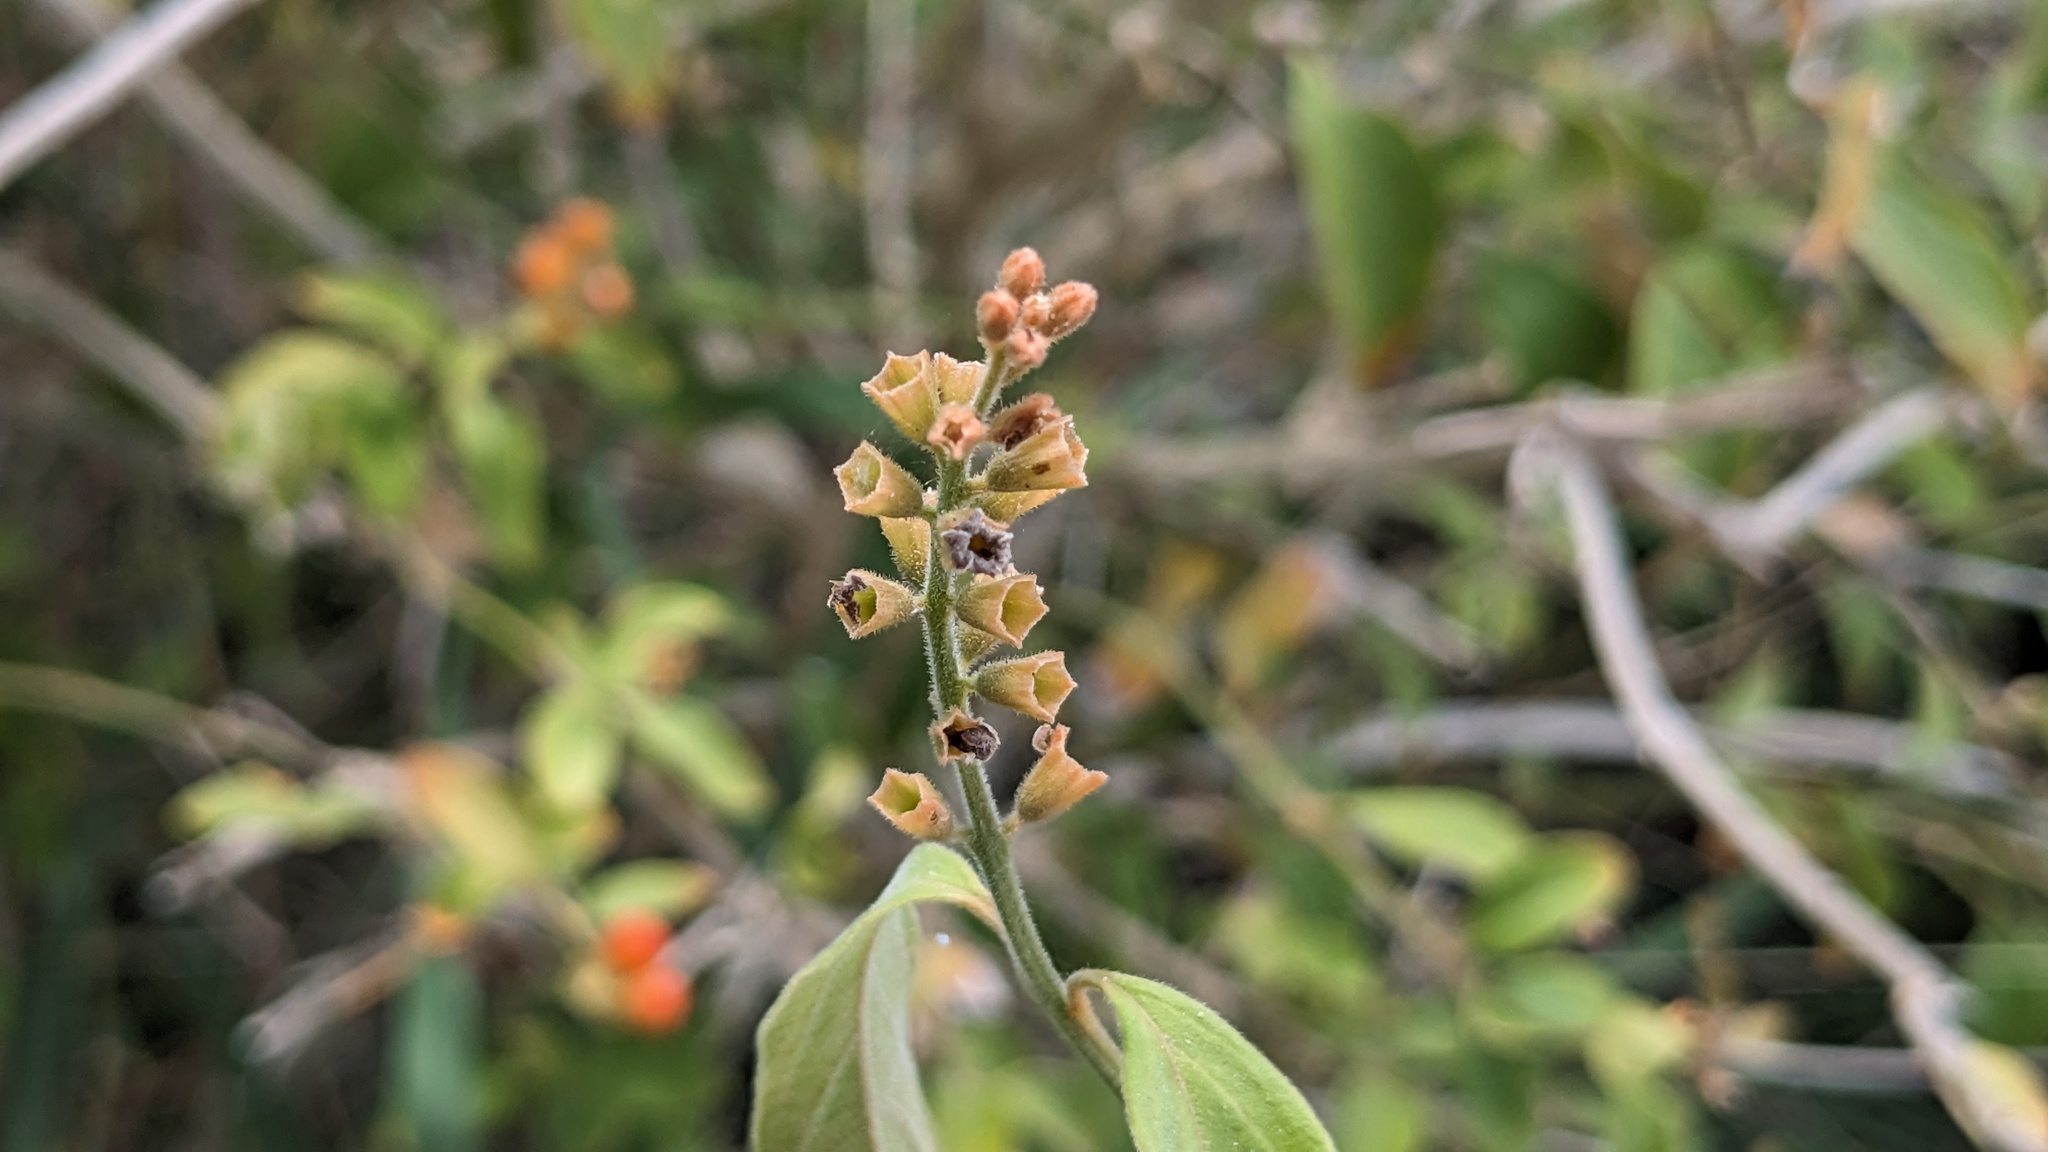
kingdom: Plantae
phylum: Tracheophyta
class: Magnoliopsida
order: Lamiales
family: Verbenaceae
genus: Citharexylum
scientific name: Citharexylum berlandieri
